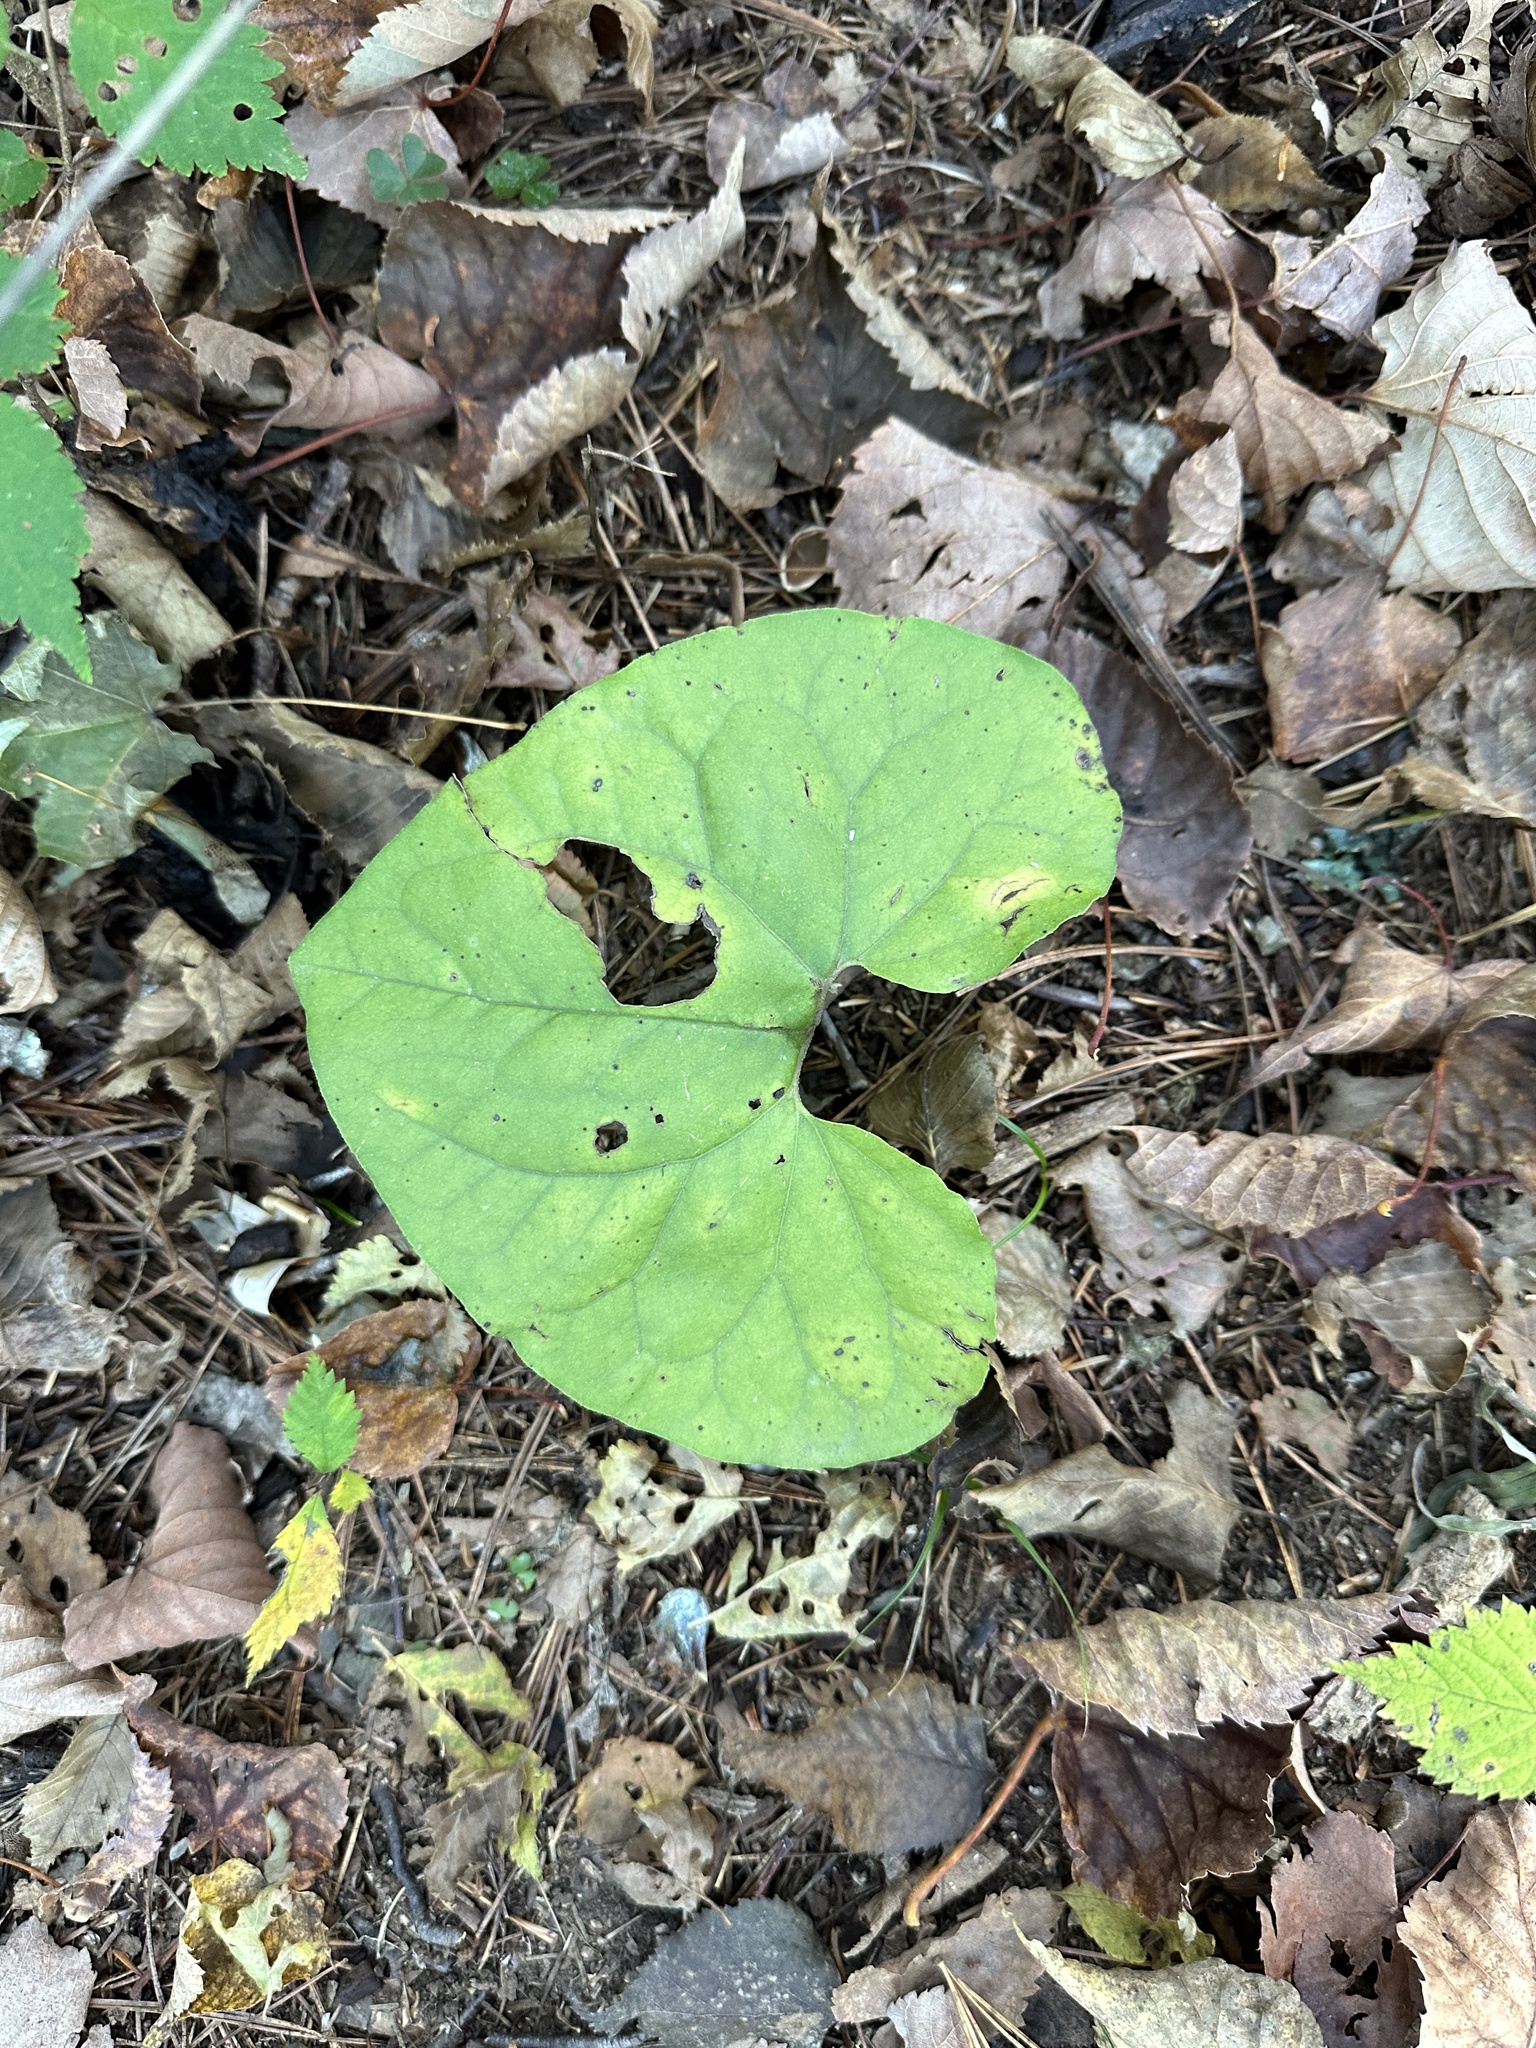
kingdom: Plantae
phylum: Tracheophyta
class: Magnoliopsida
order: Piperales
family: Aristolochiaceae
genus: Asarum
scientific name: Asarum sieboldii
